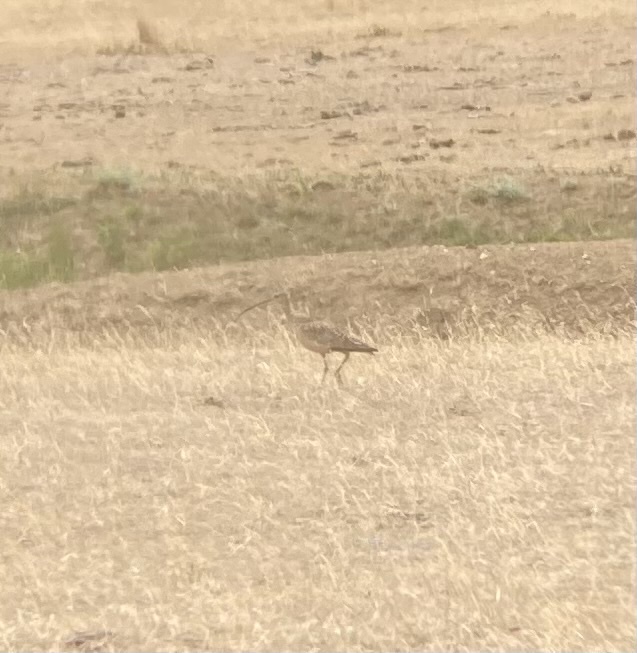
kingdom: Animalia
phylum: Chordata
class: Aves
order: Charadriiformes
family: Scolopacidae
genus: Numenius
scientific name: Numenius americanus
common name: Long-billed curlew
